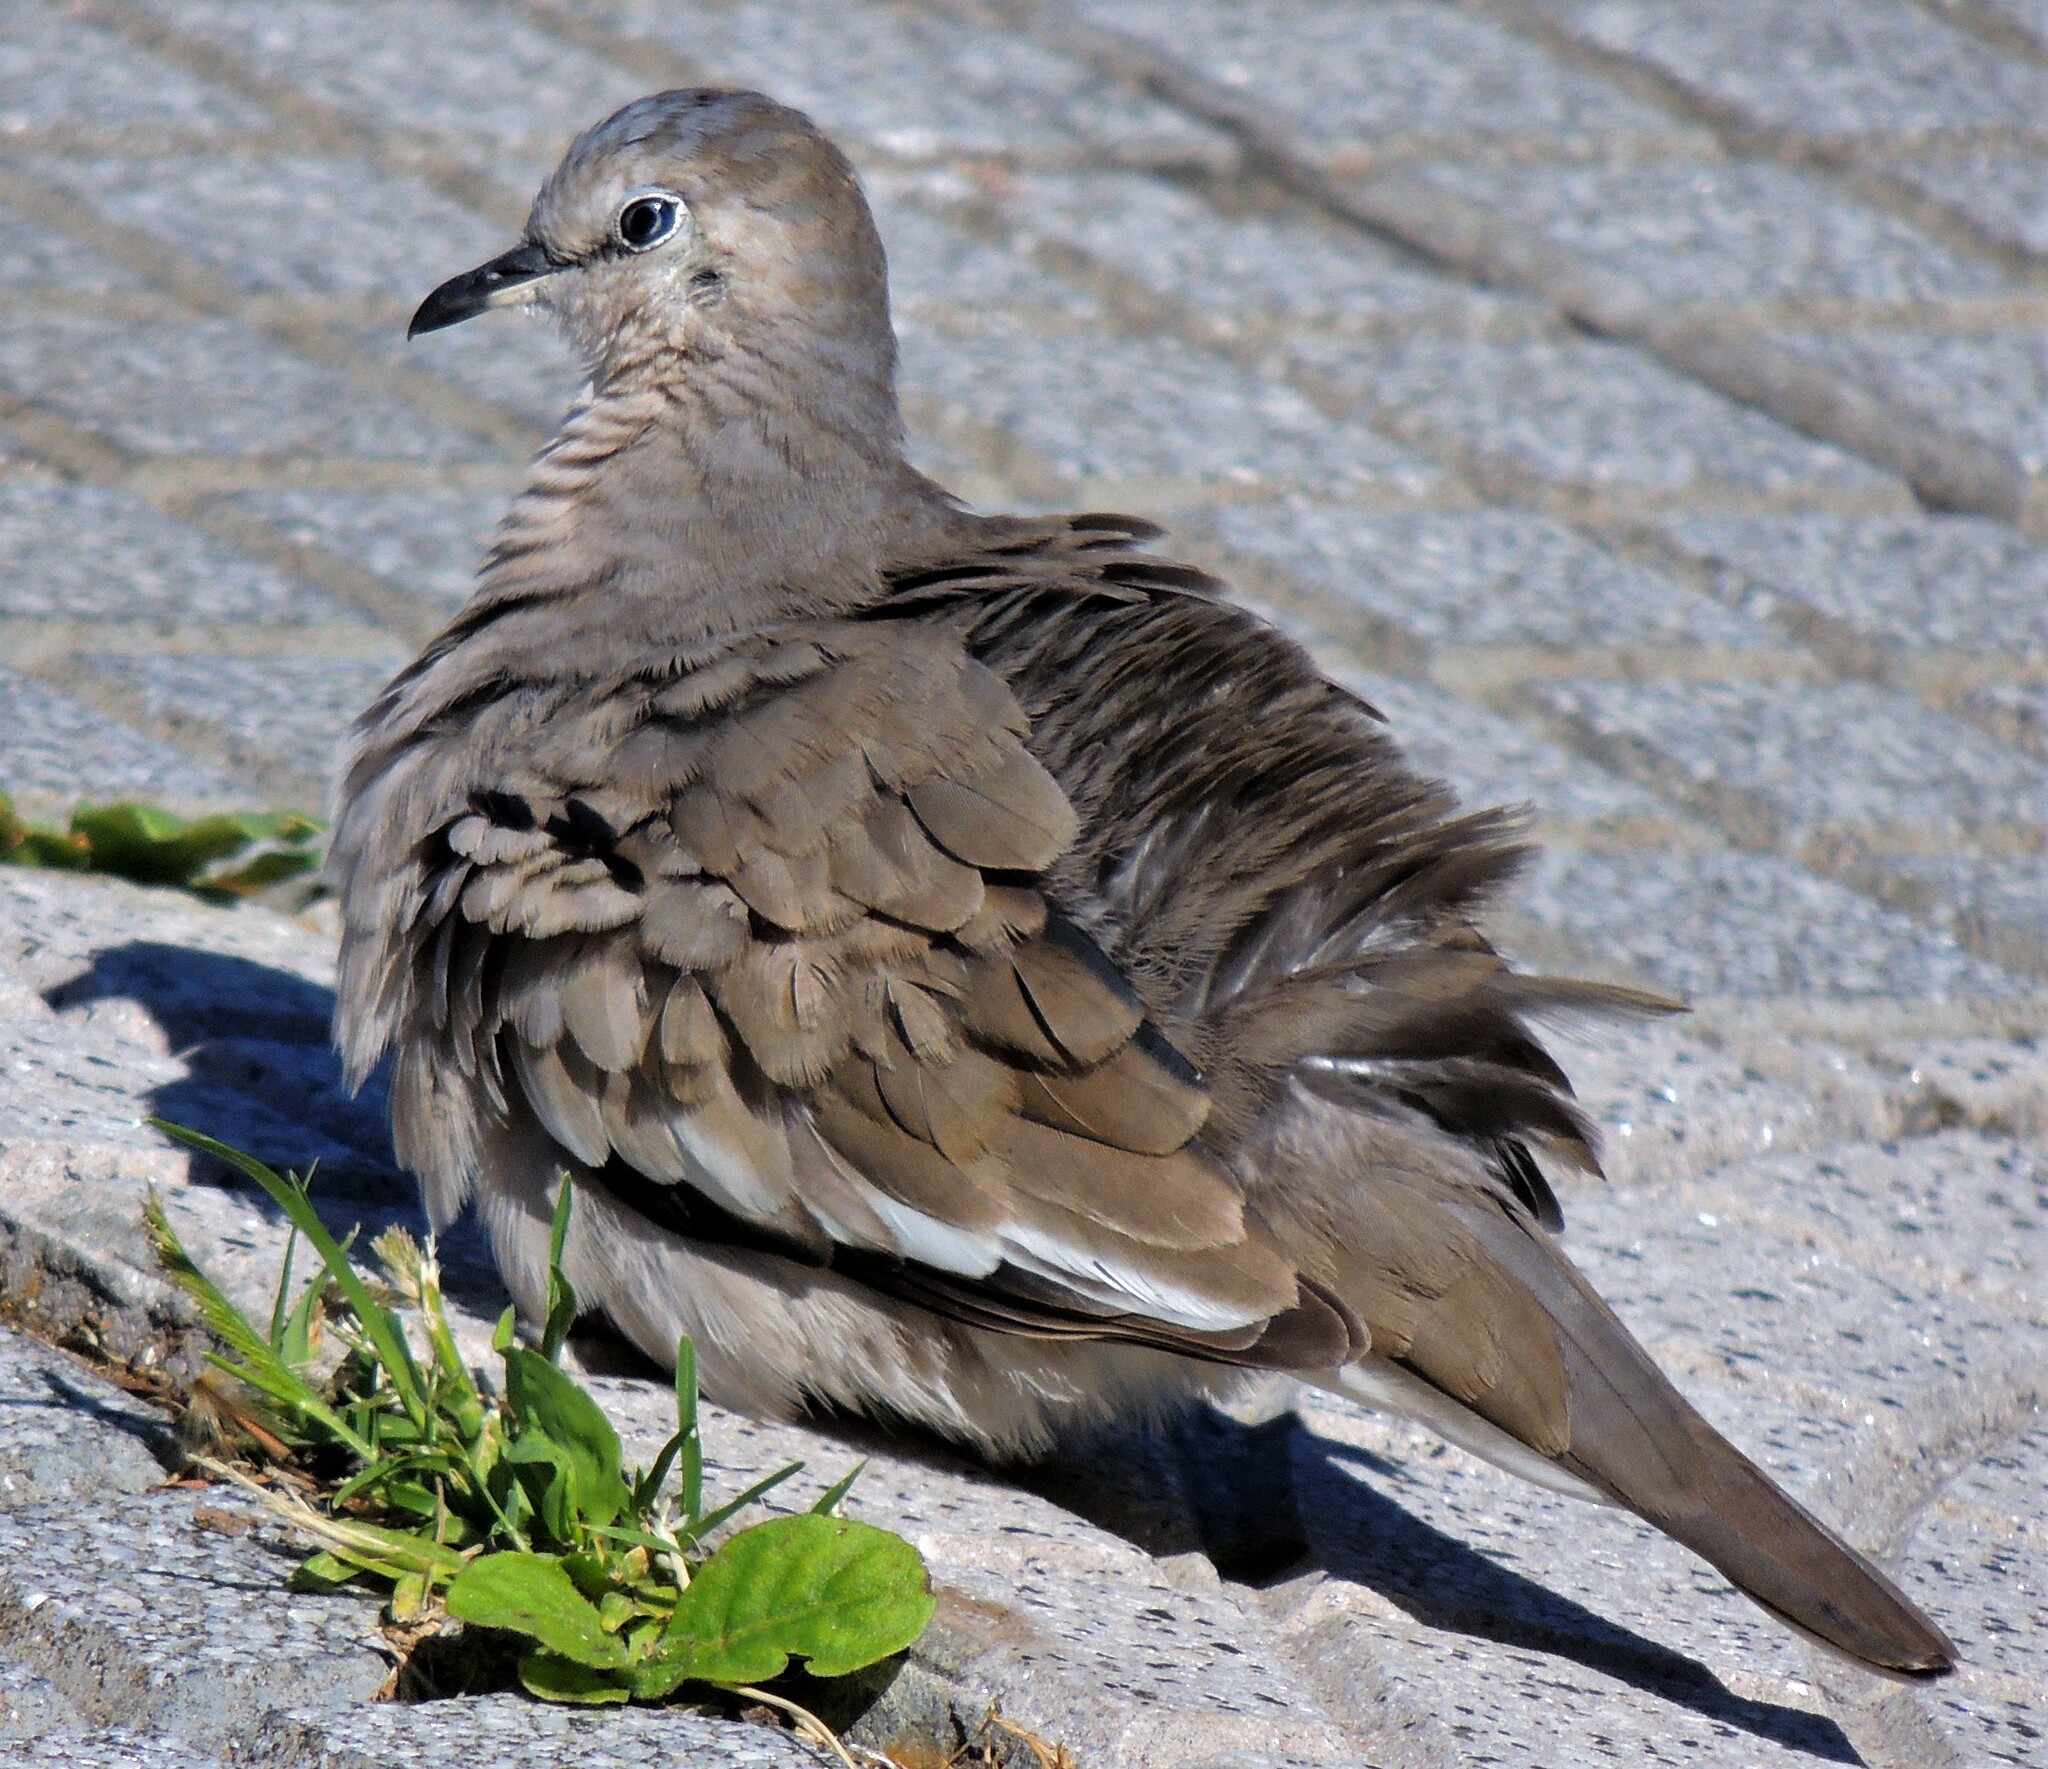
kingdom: Animalia
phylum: Chordata
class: Aves
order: Columbiformes
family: Columbidae
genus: Columbina
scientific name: Columbina picui
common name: Picui ground dove
